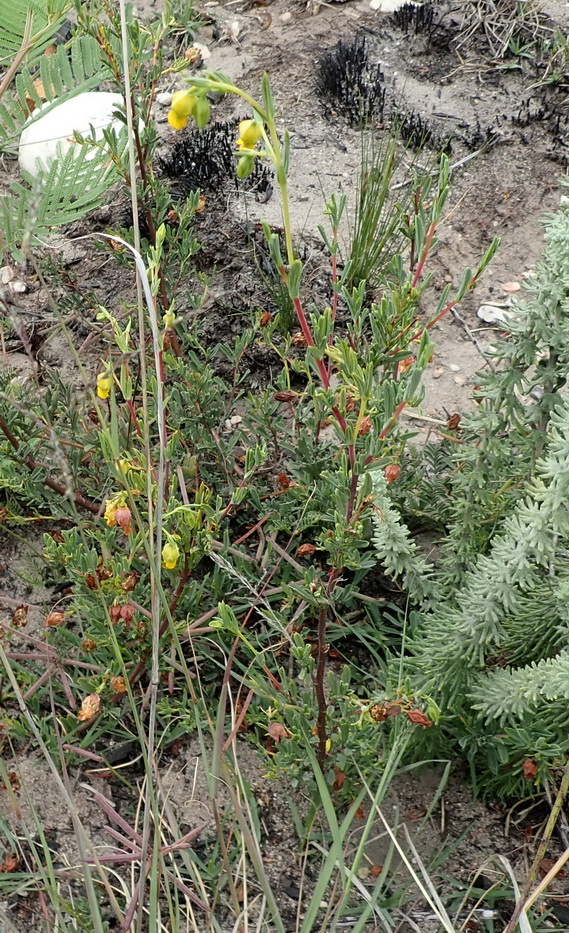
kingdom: Plantae
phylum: Tracheophyta
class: Magnoliopsida
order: Malvales
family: Malvaceae
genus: Hermannia
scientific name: Hermannia
